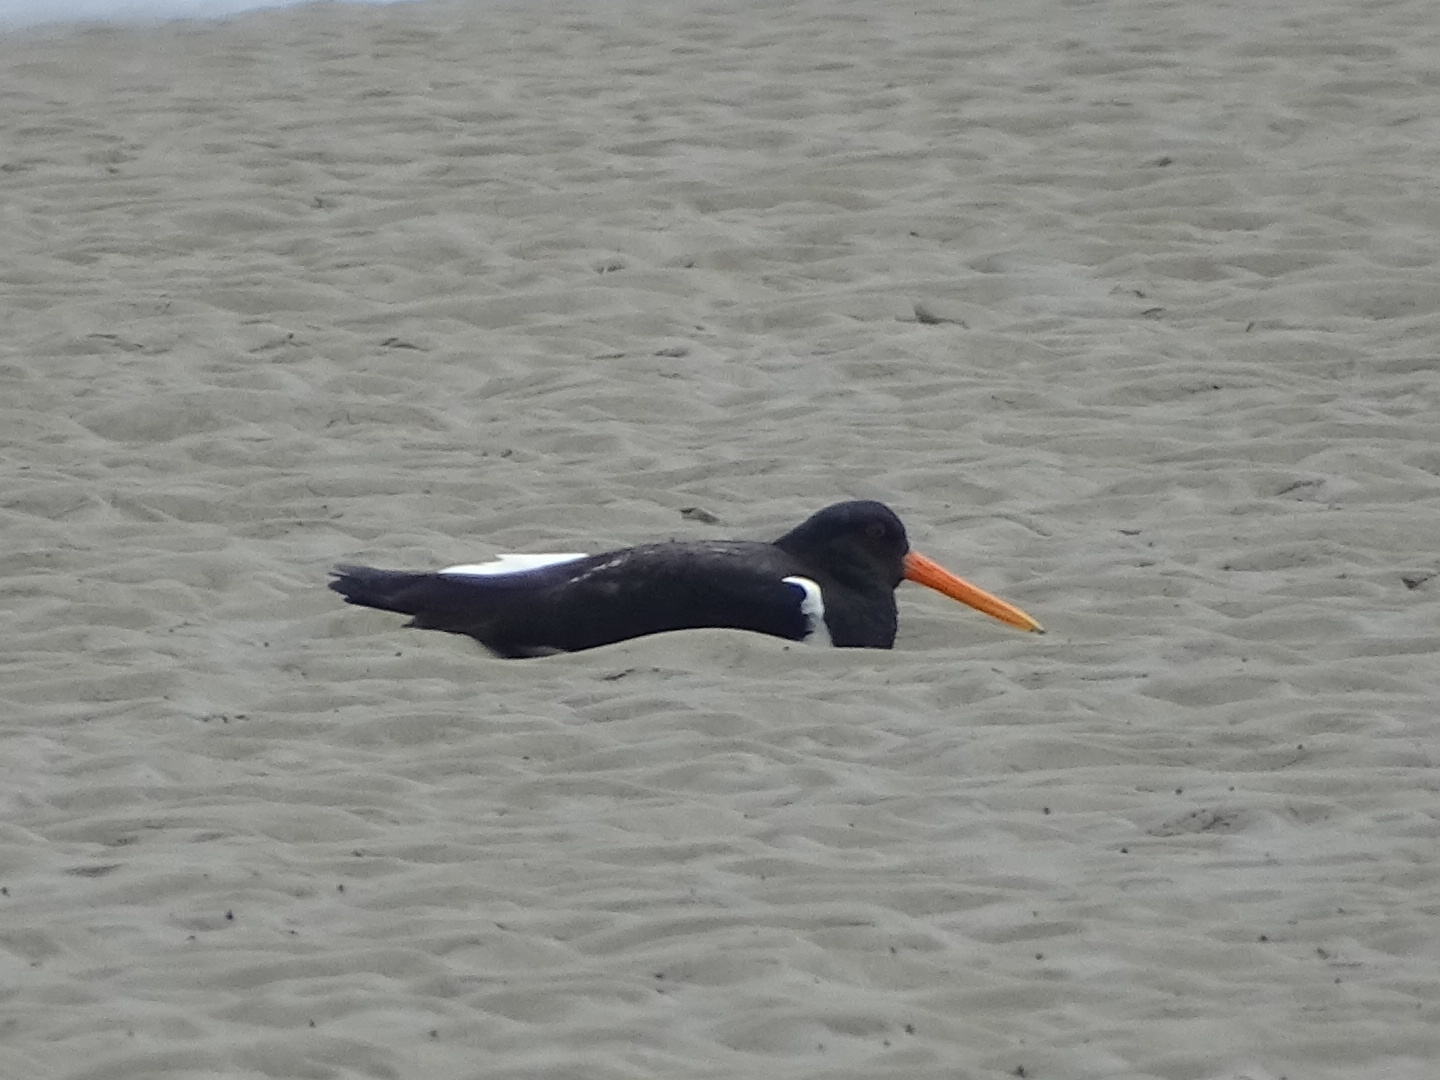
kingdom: Animalia
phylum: Chordata
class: Aves
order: Charadriiformes
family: Haematopodidae
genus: Haematopus
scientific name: Haematopus ostralegus
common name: Eurasian oystercatcher
